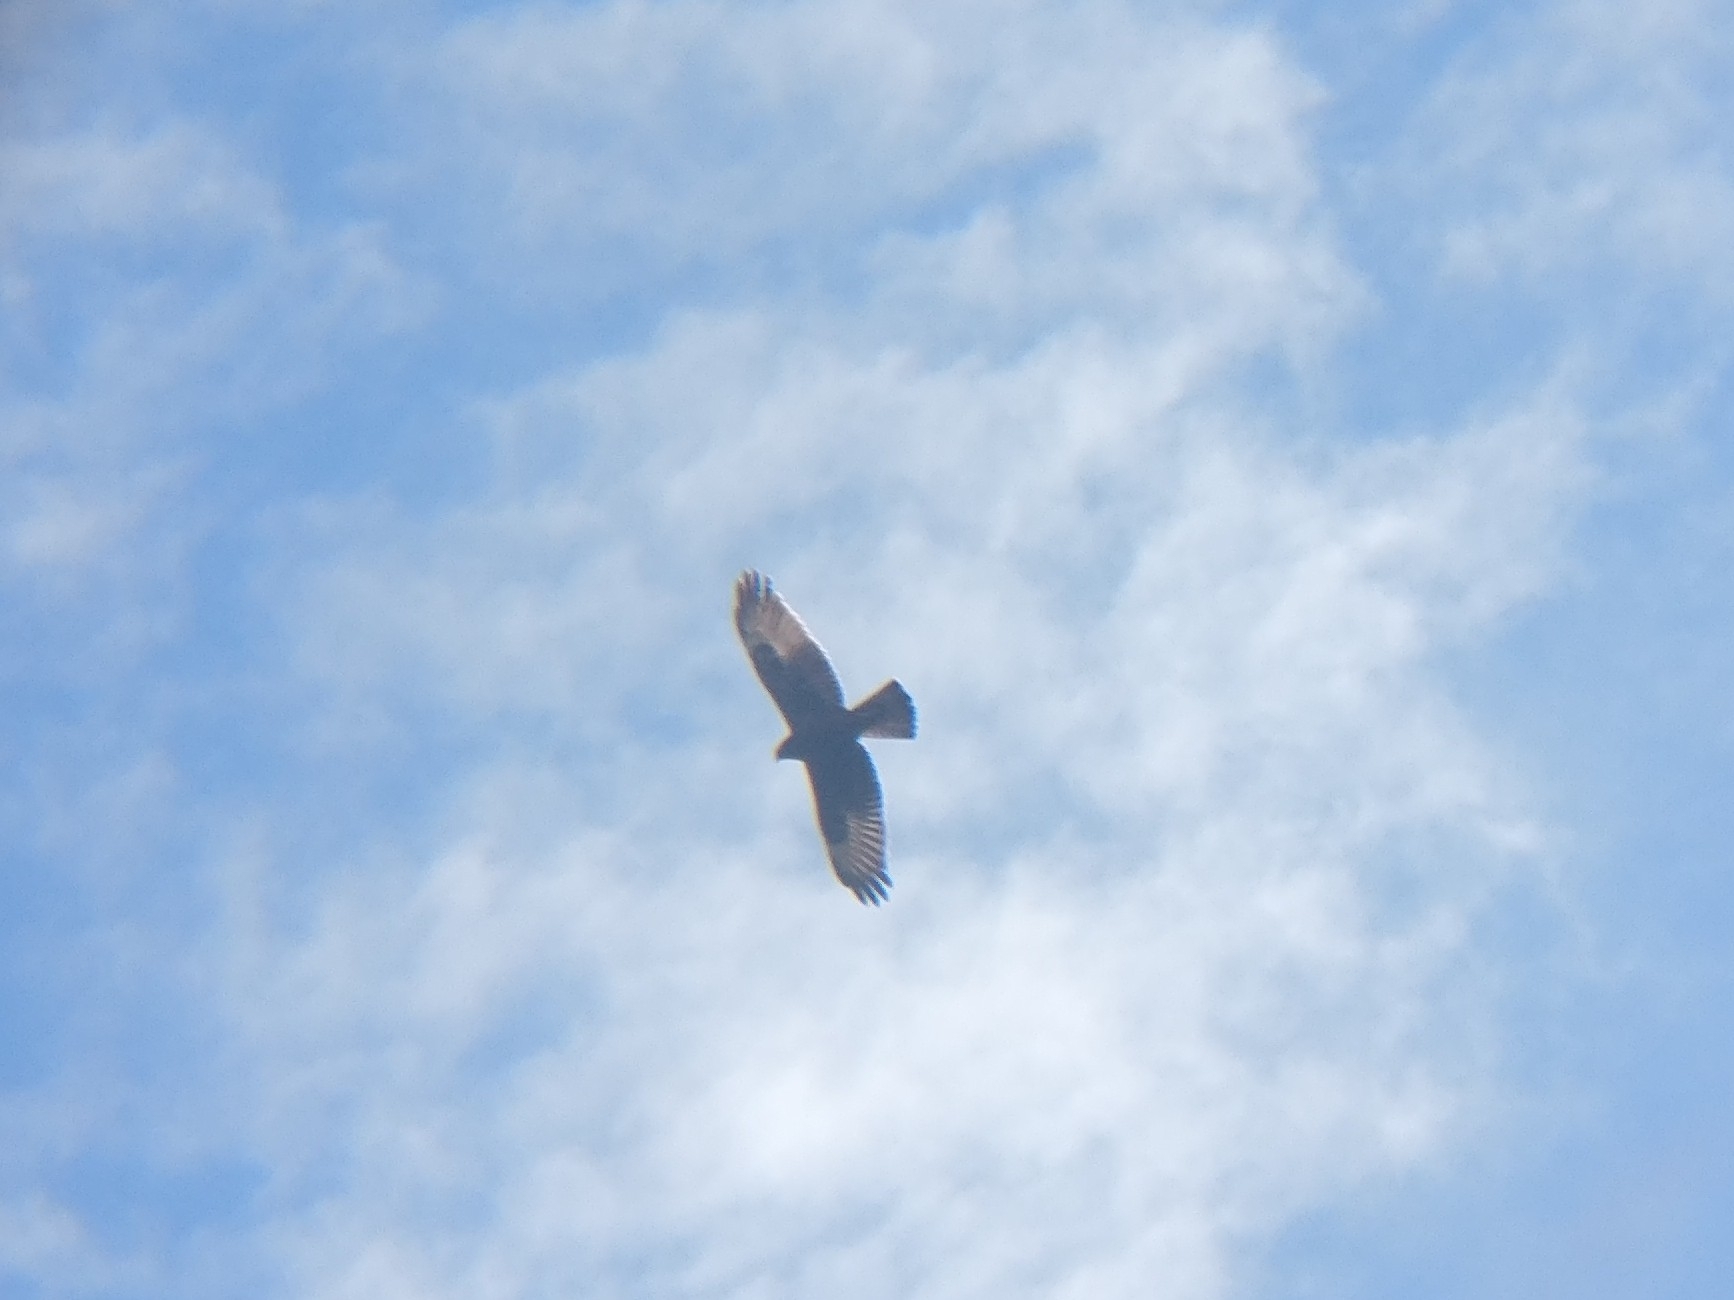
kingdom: Animalia
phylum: Chordata
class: Aves
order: Accipitriformes
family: Accipitridae
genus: Circus
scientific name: Circus approximans
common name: Swamp harrier
